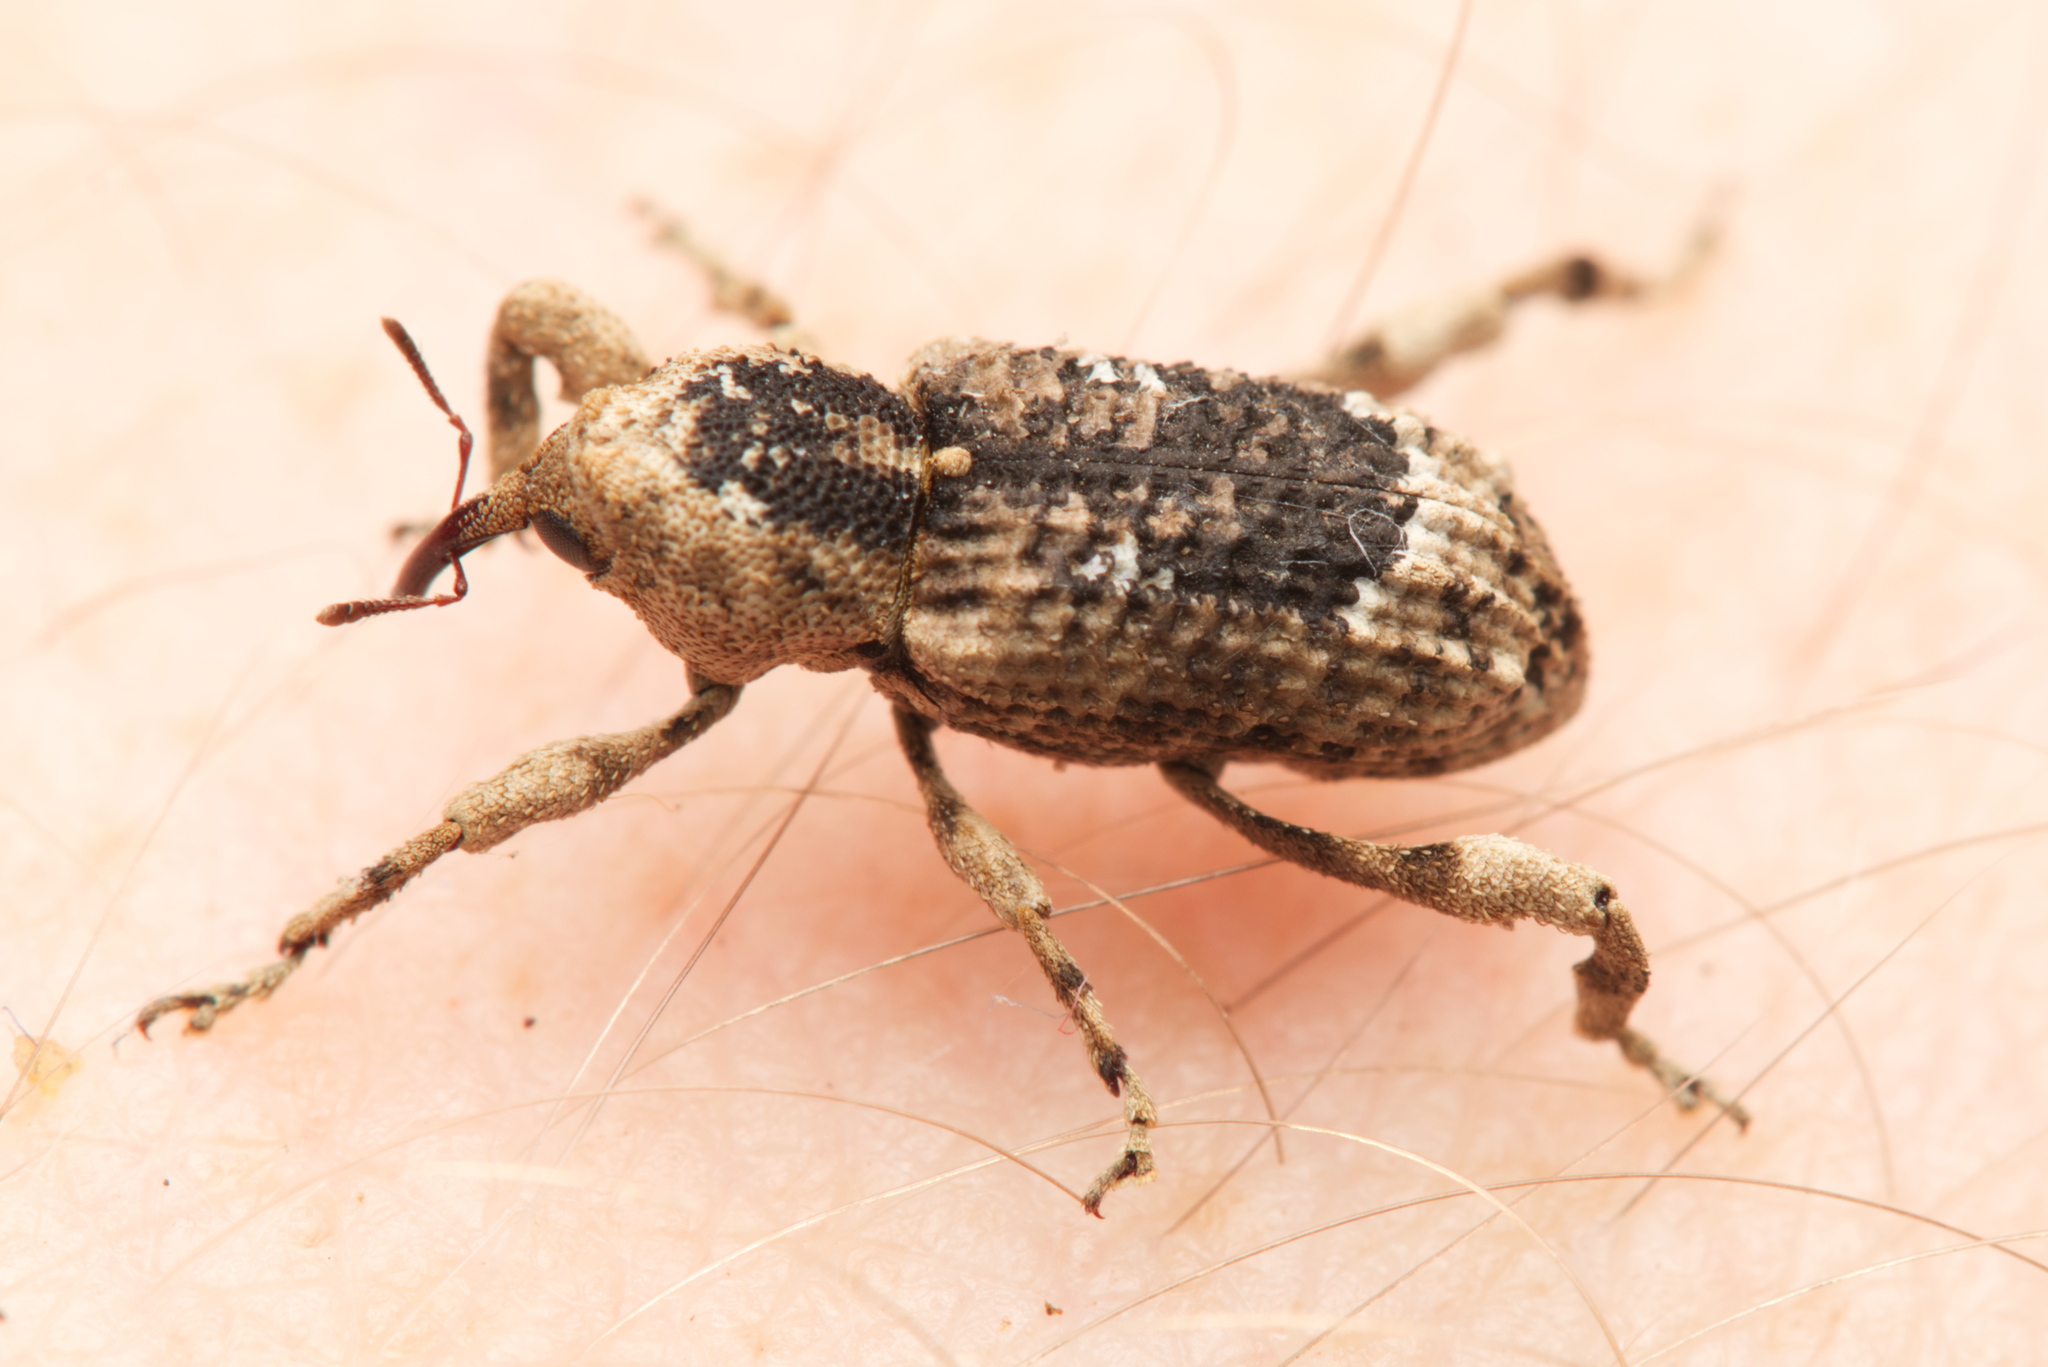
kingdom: Animalia
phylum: Arthropoda
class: Insecta
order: Coleoptera
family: Curculionidae
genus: Camptorhinus
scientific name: Camptorhinus dorsalis
